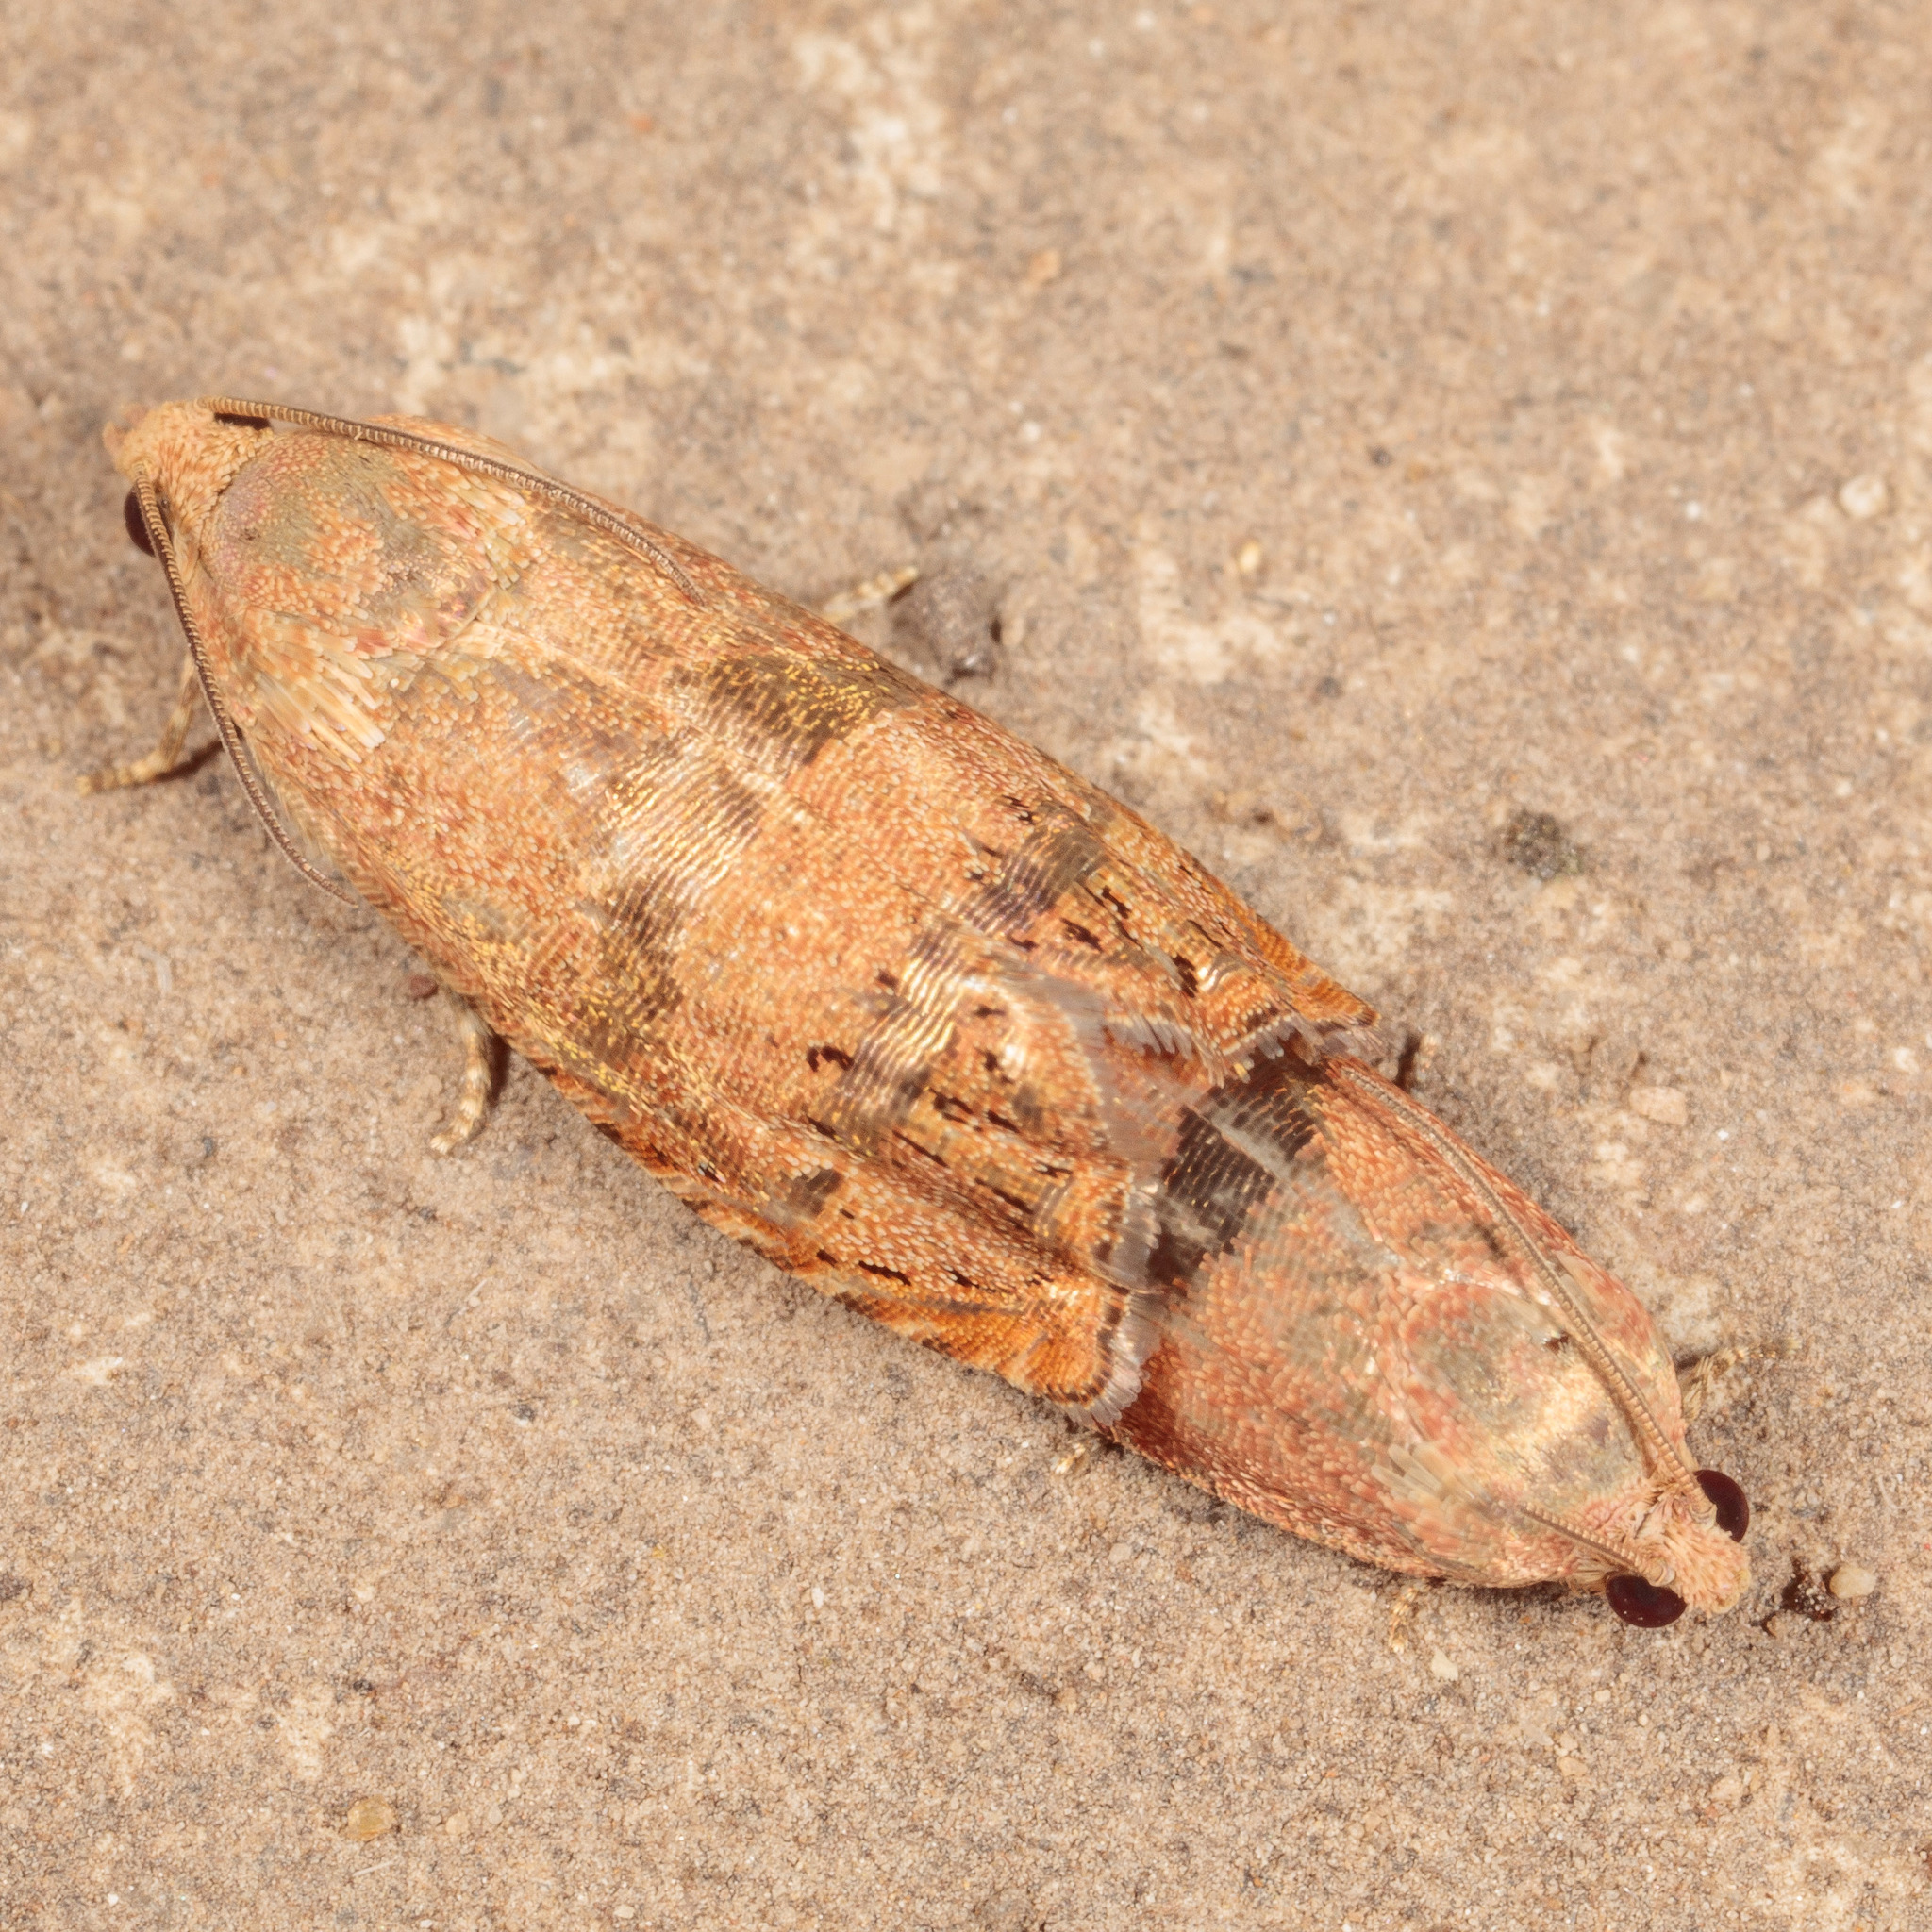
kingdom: Animalia
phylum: Arthropoda
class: Insecta
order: Lepidoptera
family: Tortricidae
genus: Cydia
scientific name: Cydia latiferreana
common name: Filbertworm moth
